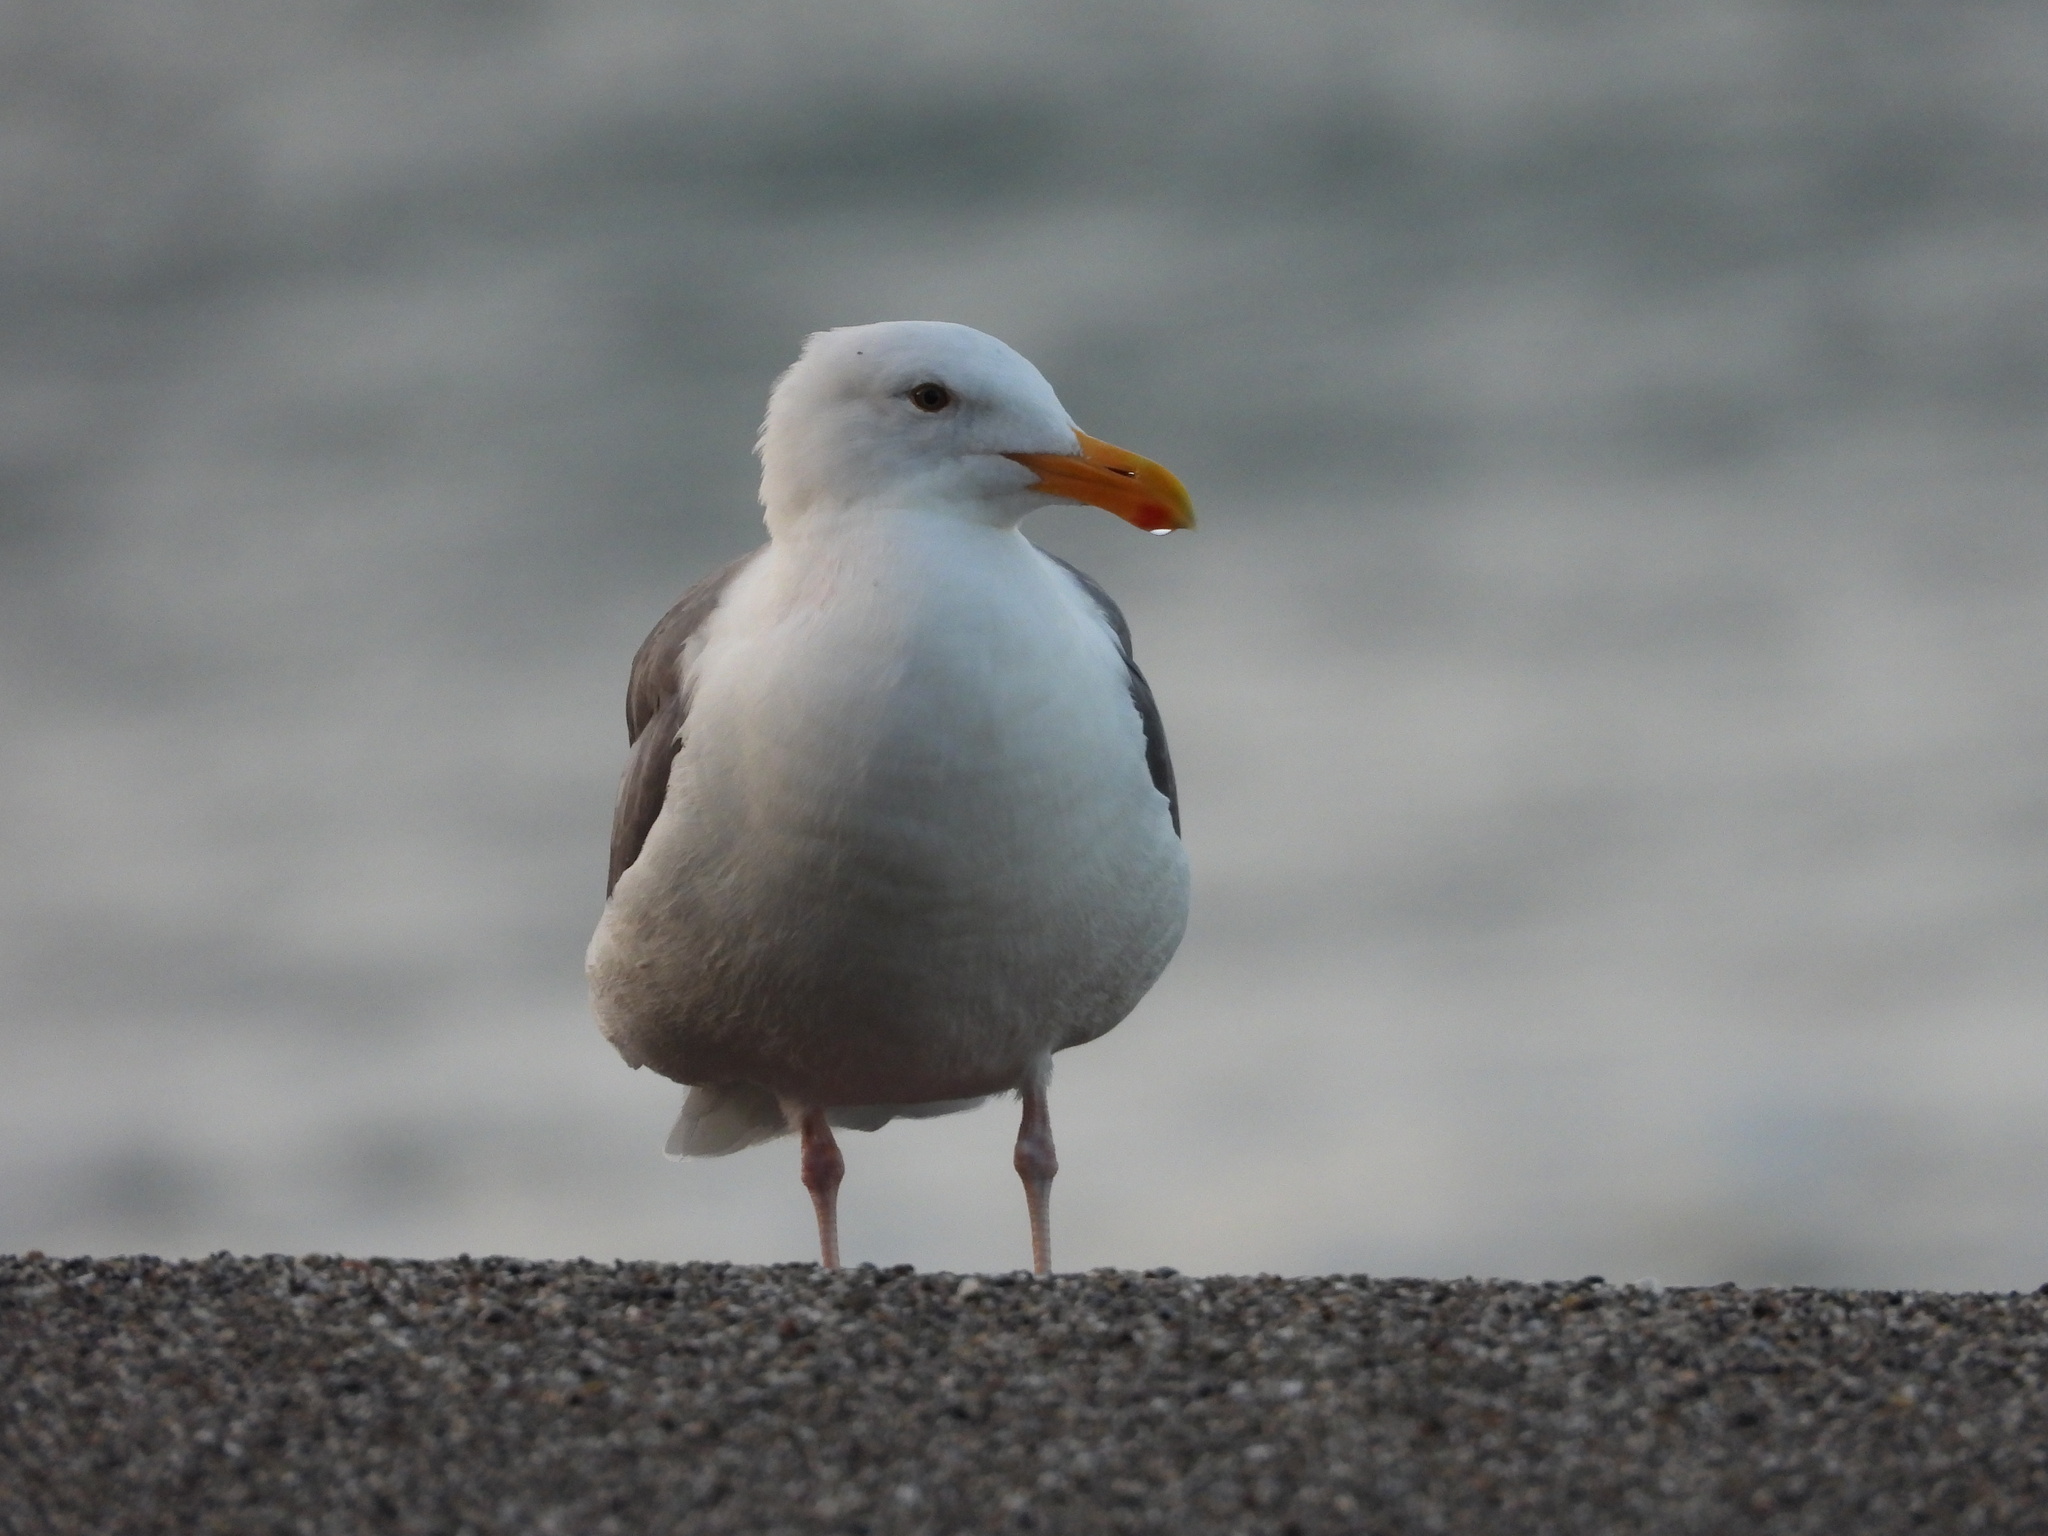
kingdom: Animalia
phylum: Chordata
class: Aves
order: Charadriiformes
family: Laridae
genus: Larus
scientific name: Larus occidentalis
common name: Western gull
